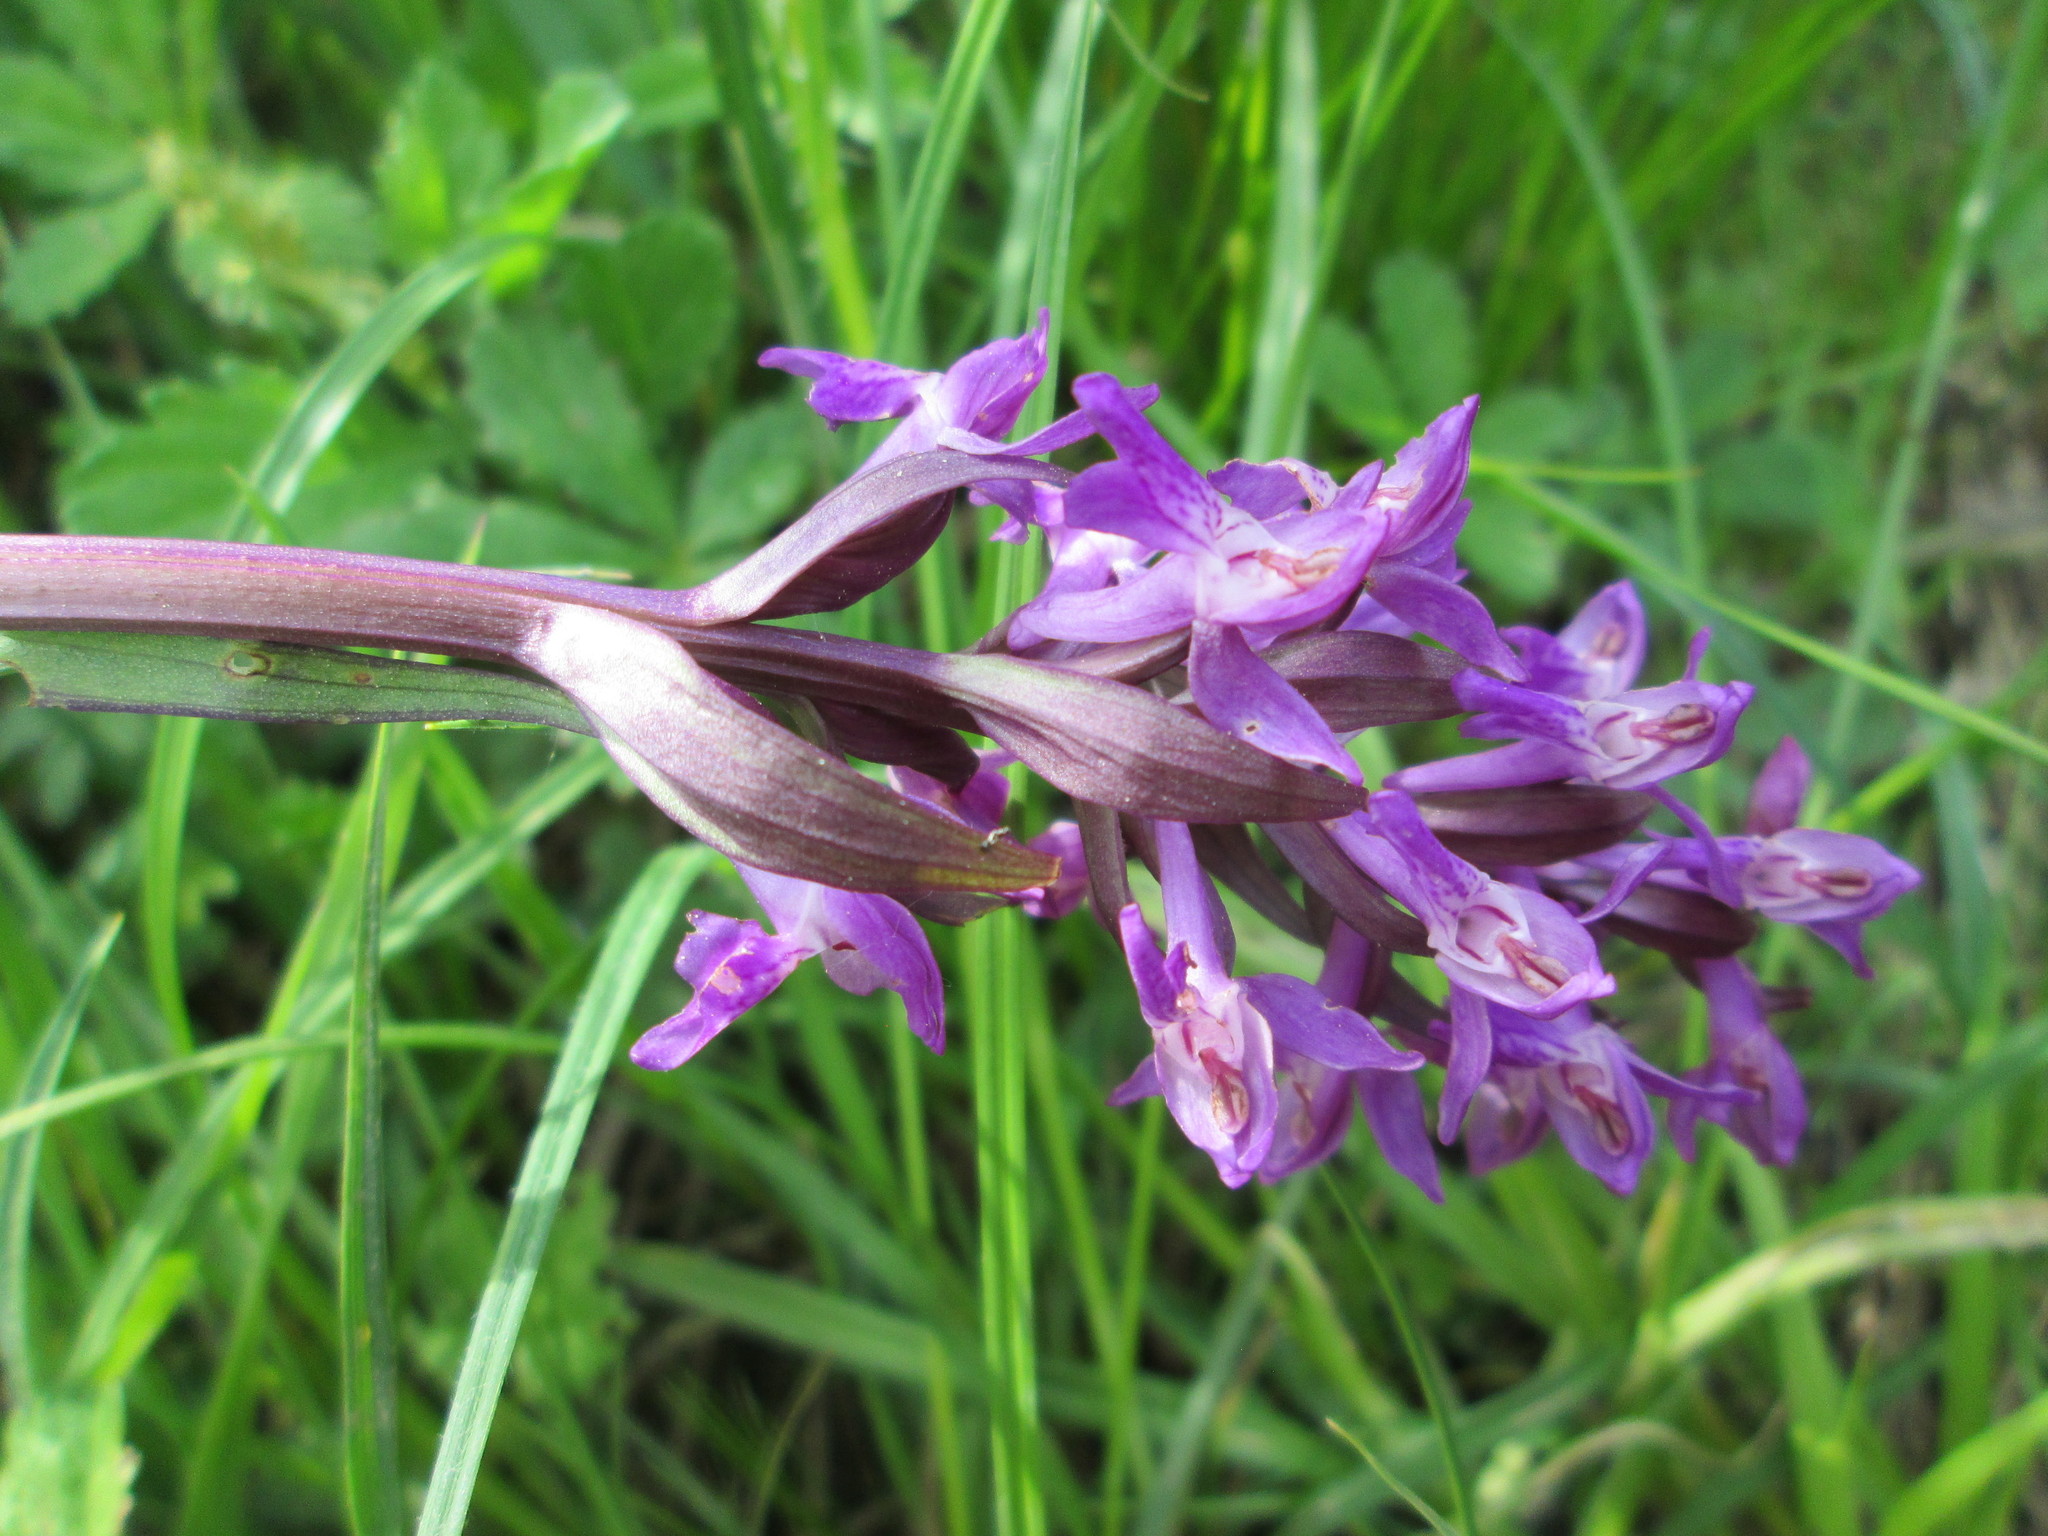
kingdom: Plantae
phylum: Tracheophyta
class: Liliopsida
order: Asparagales
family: Orchidaceae
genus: Orchis
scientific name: Orchis mascula
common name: Early-purple orchid
